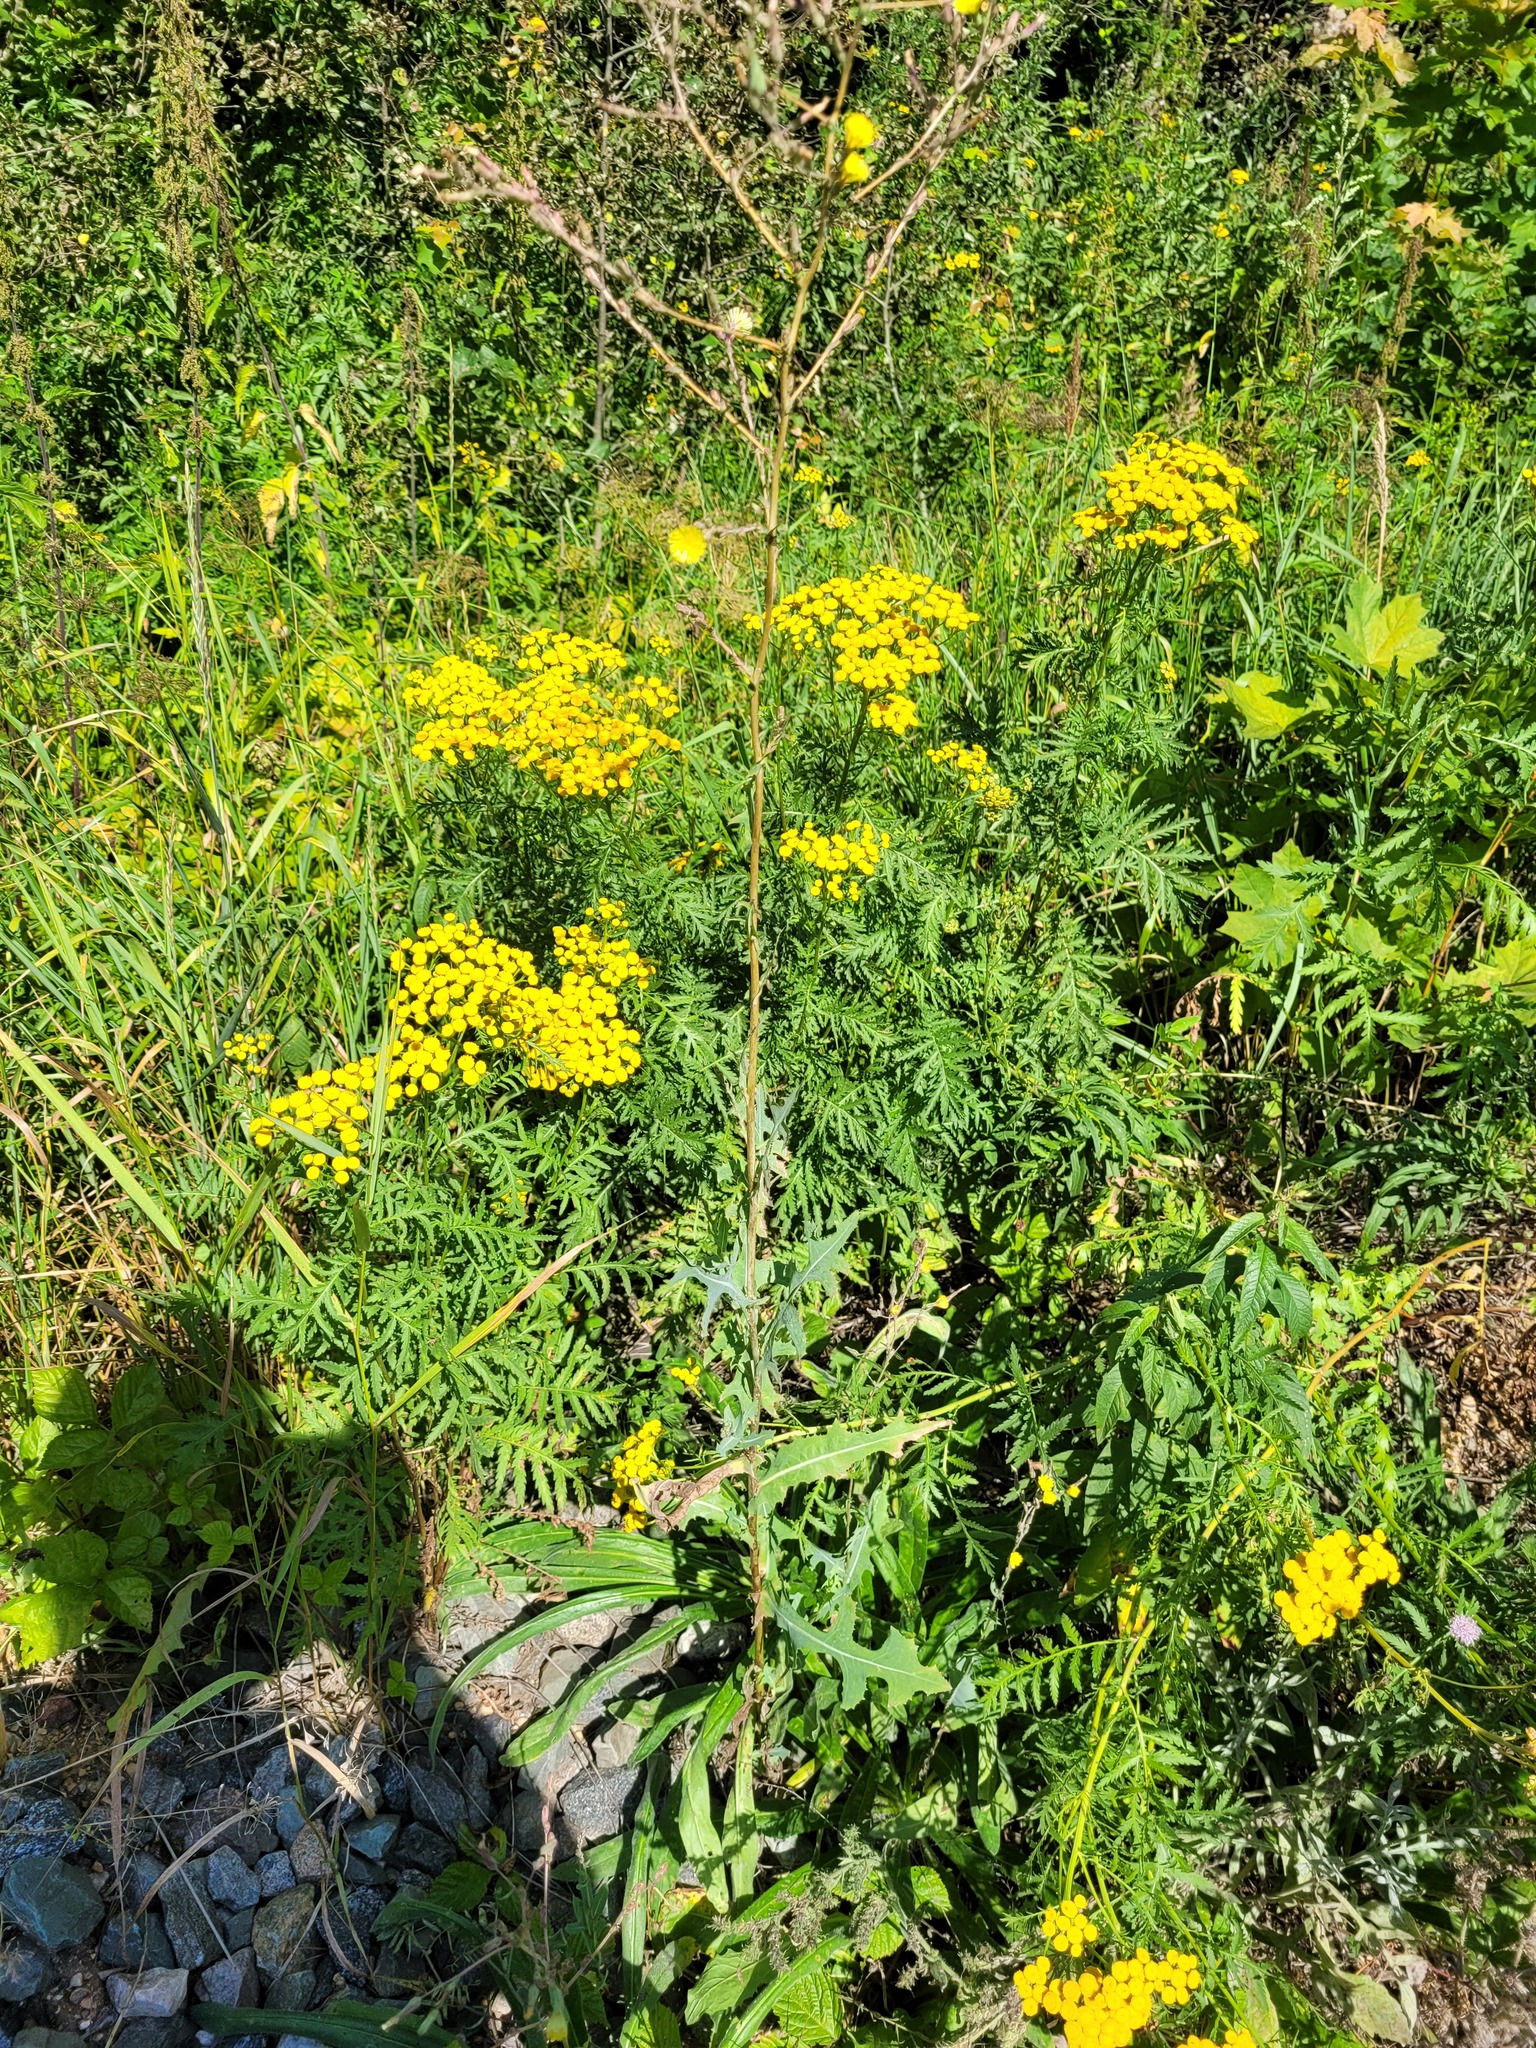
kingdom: Plantae
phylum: Tracheophyta
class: Magnoliopsida
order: Asterales
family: Asteraceae
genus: Lactuca
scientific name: Lactuca serriola
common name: Prickly lettuce
